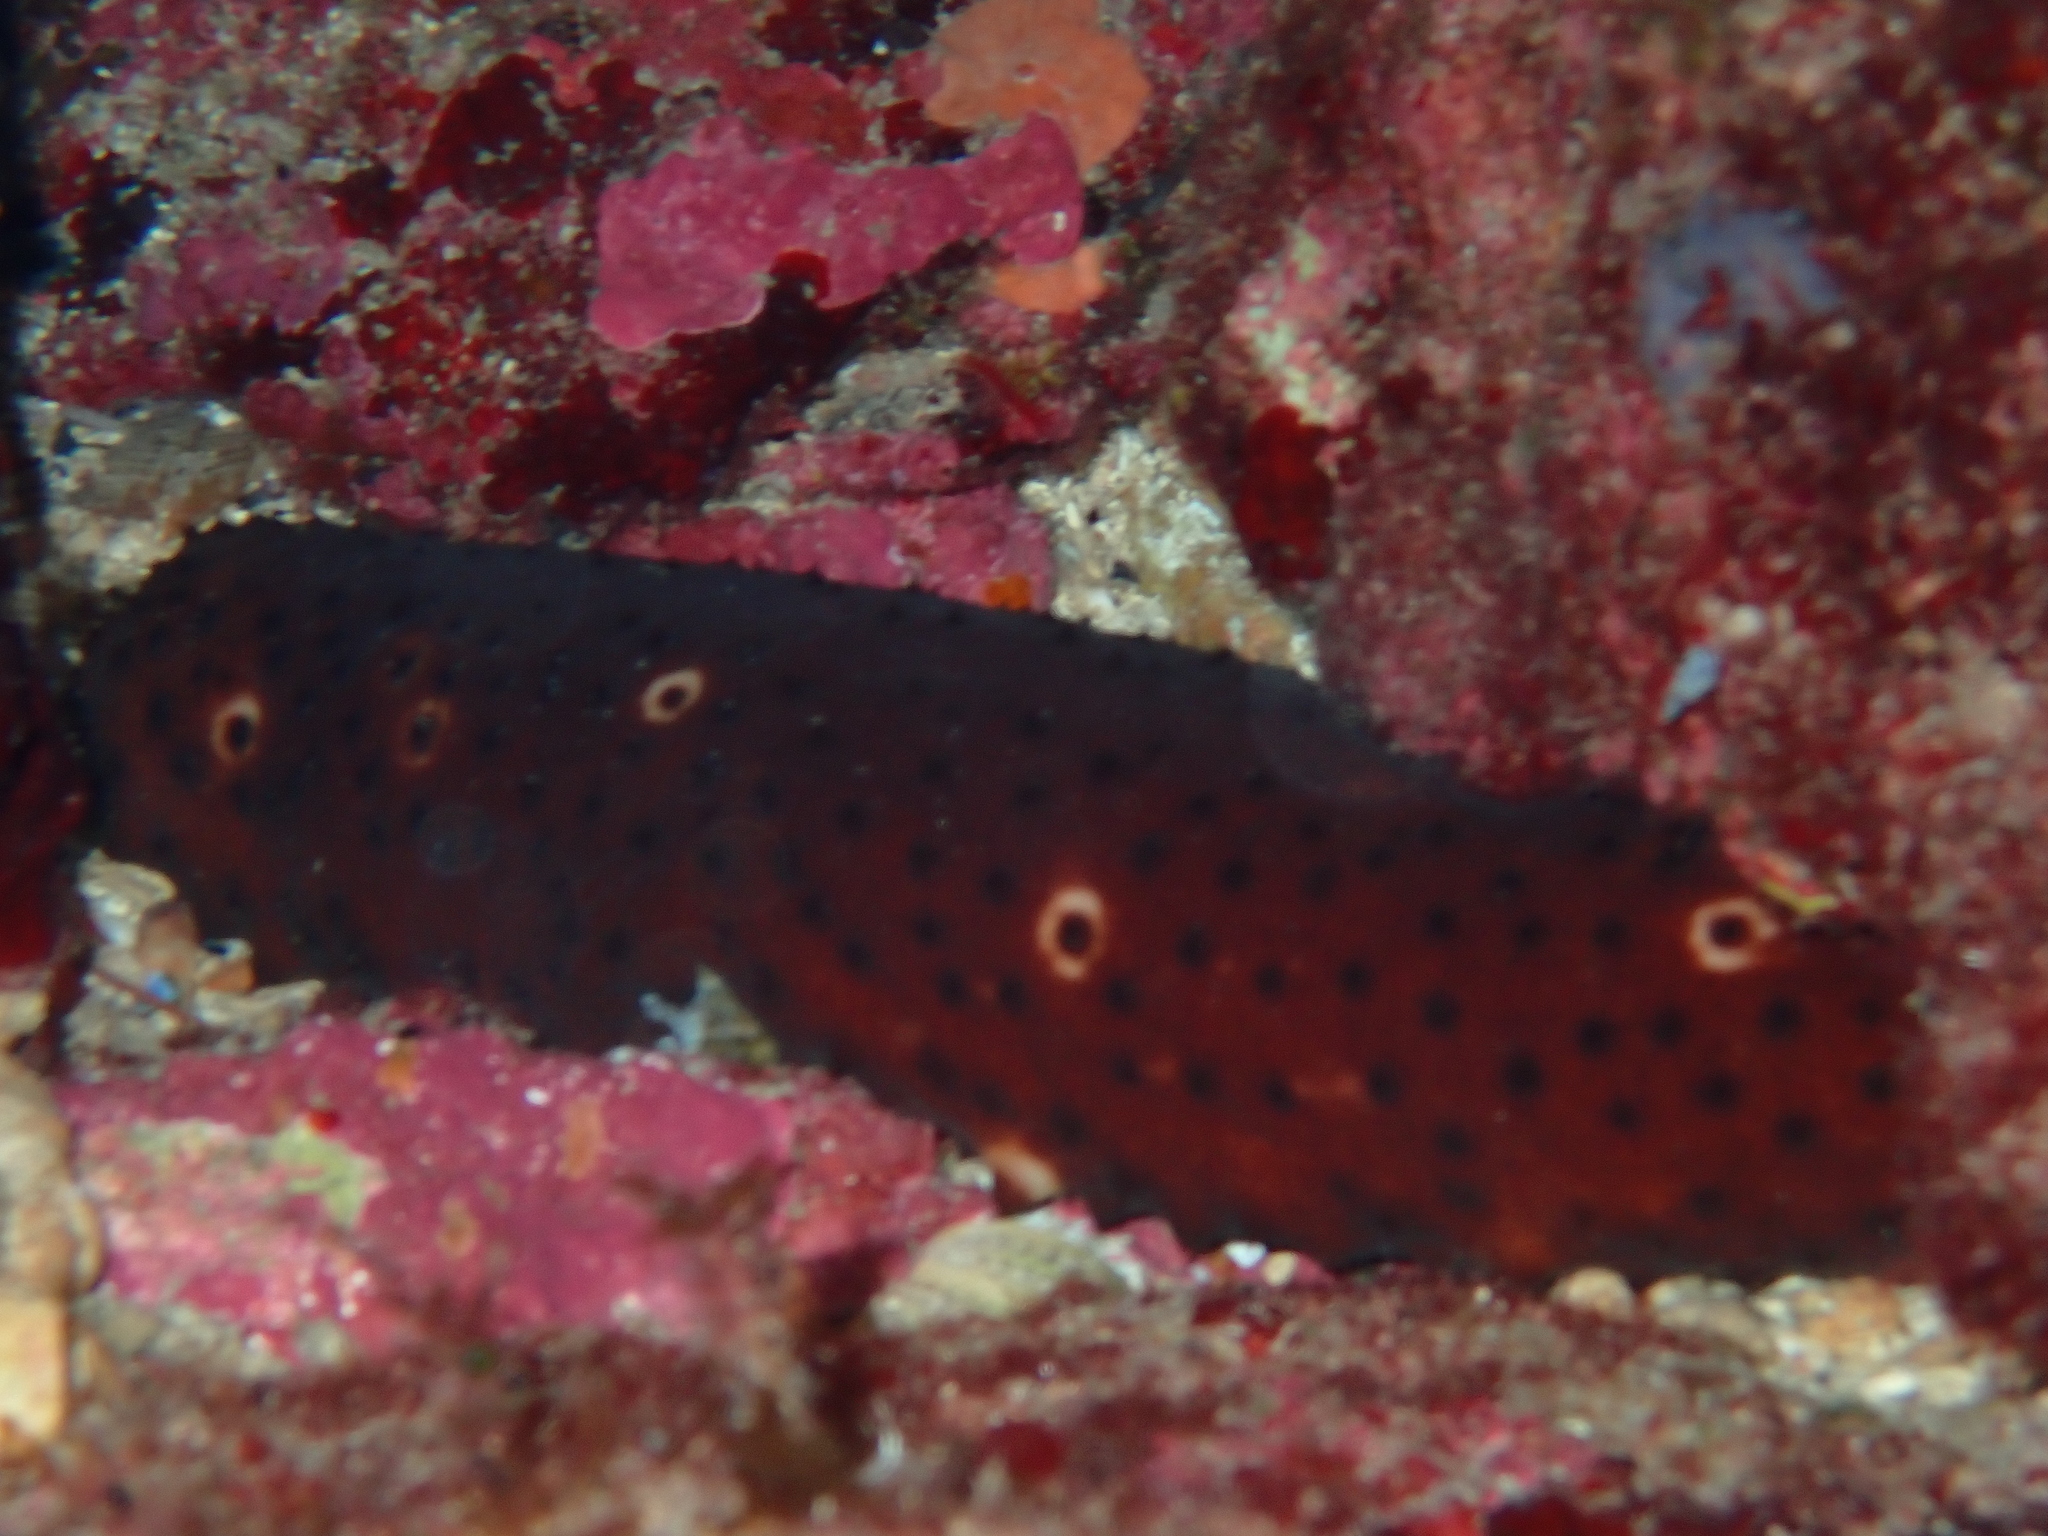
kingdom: Animalia
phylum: Echinodermata
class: Holothuroidea
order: Holothuriida
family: Holothuriidae
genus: Holothuria
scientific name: Holothuria sanctori
